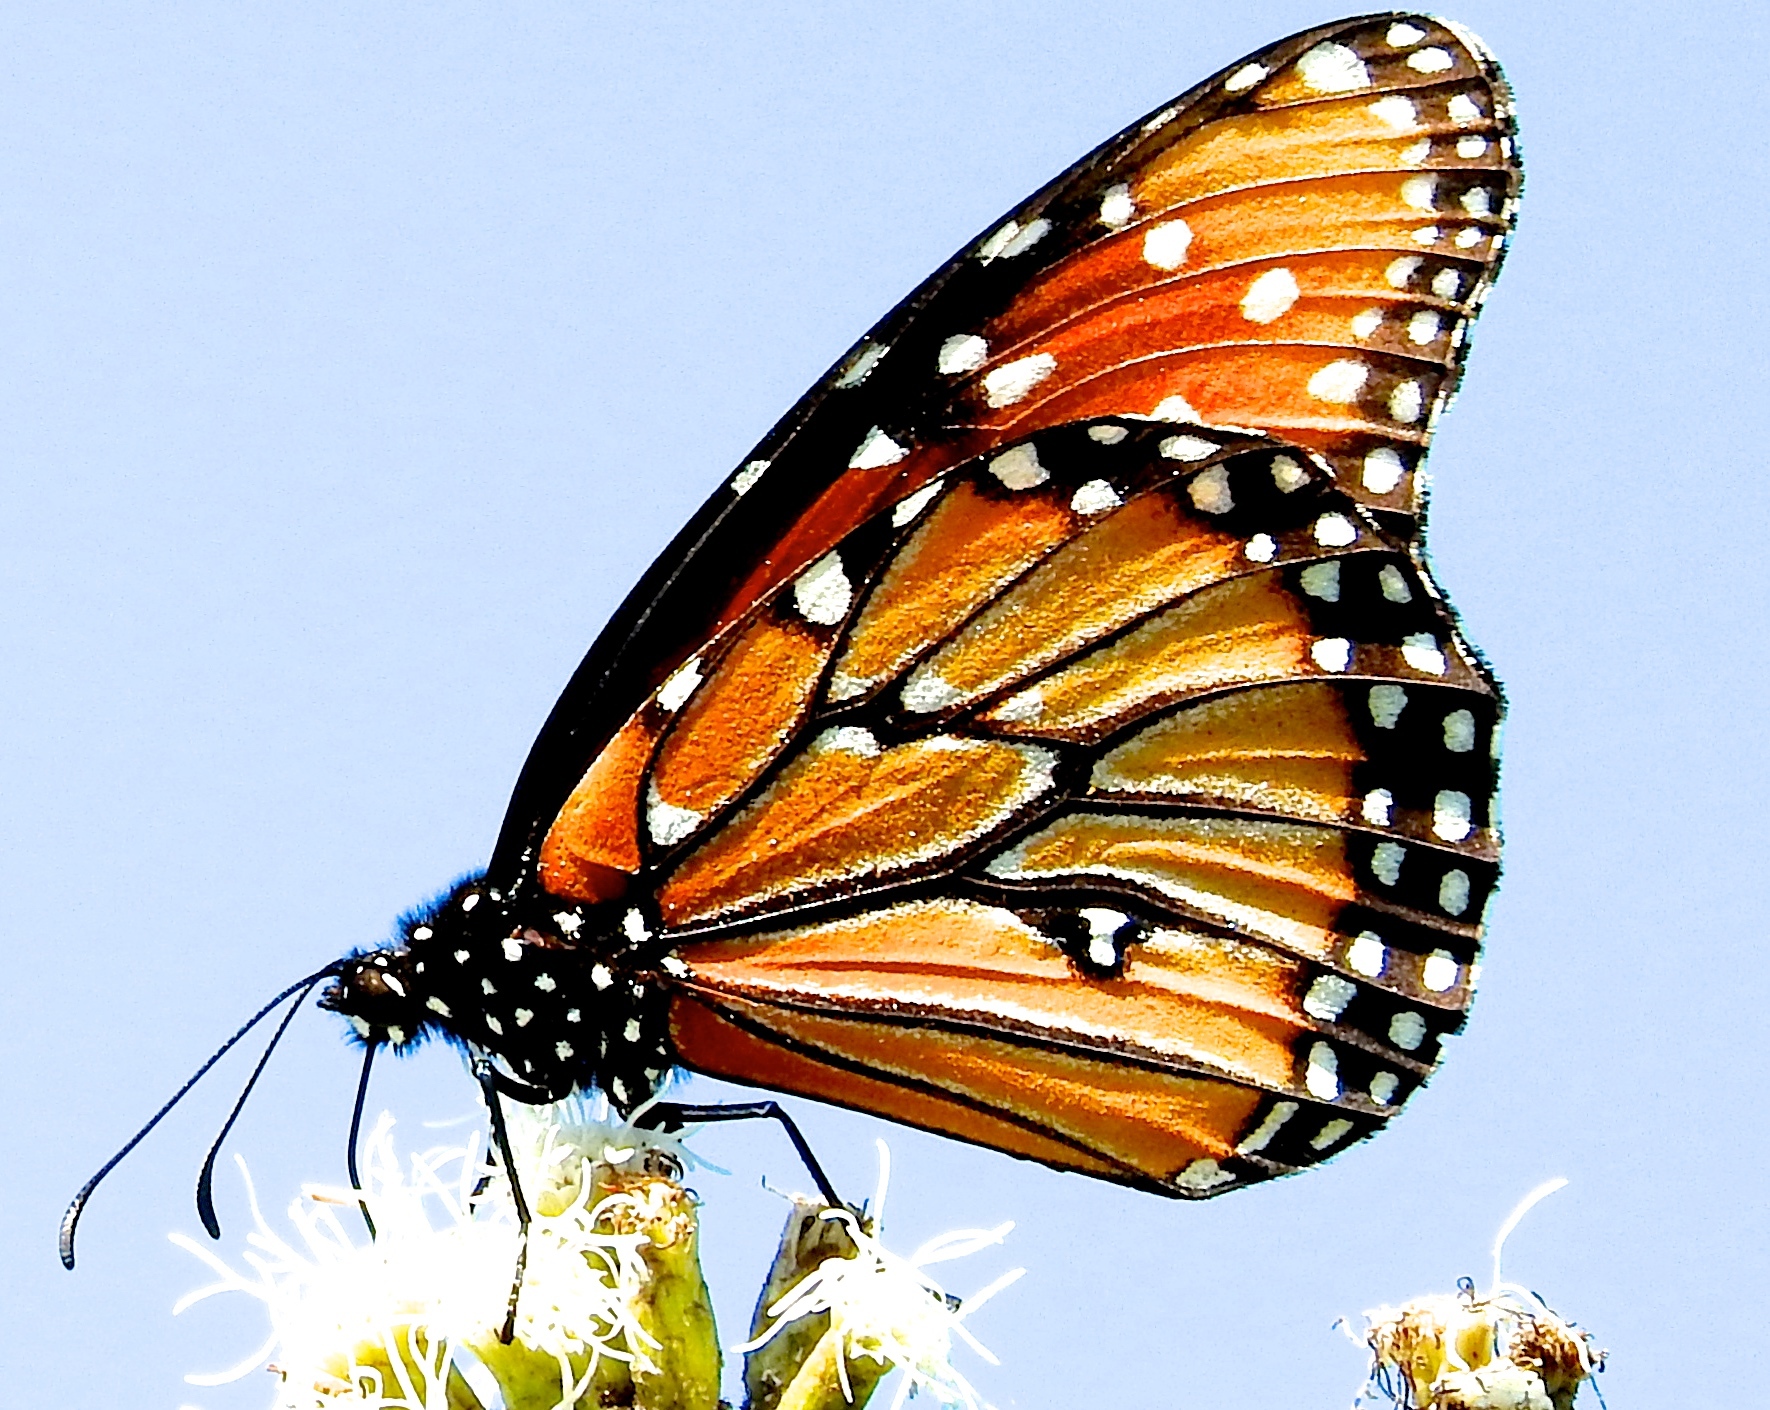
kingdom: Animalia
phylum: Arthropoda
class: Insecta
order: Lepidoptera
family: Nymphalidae
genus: Danaus
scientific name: Danaus gilippus
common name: Queen
